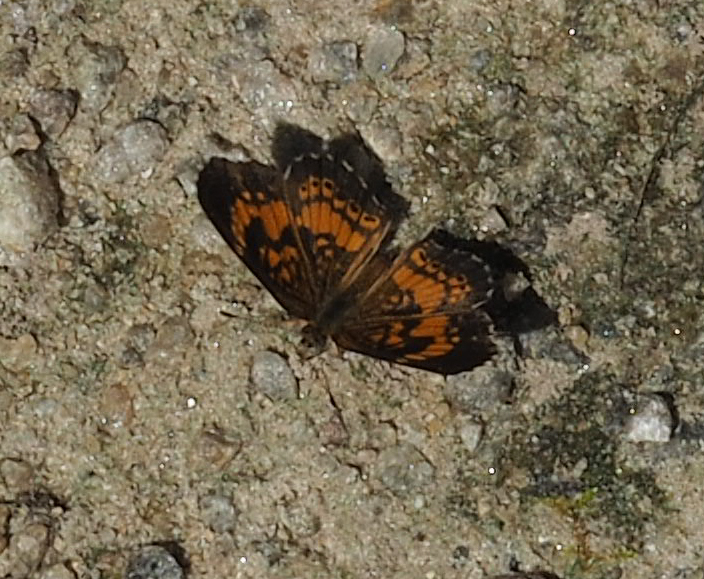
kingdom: Animalia
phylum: Arthropoda
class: Insecta
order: Lepidoptera
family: Nymphalidae
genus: Phyciodes
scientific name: Phyciodes tharos
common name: Pearl crescent
